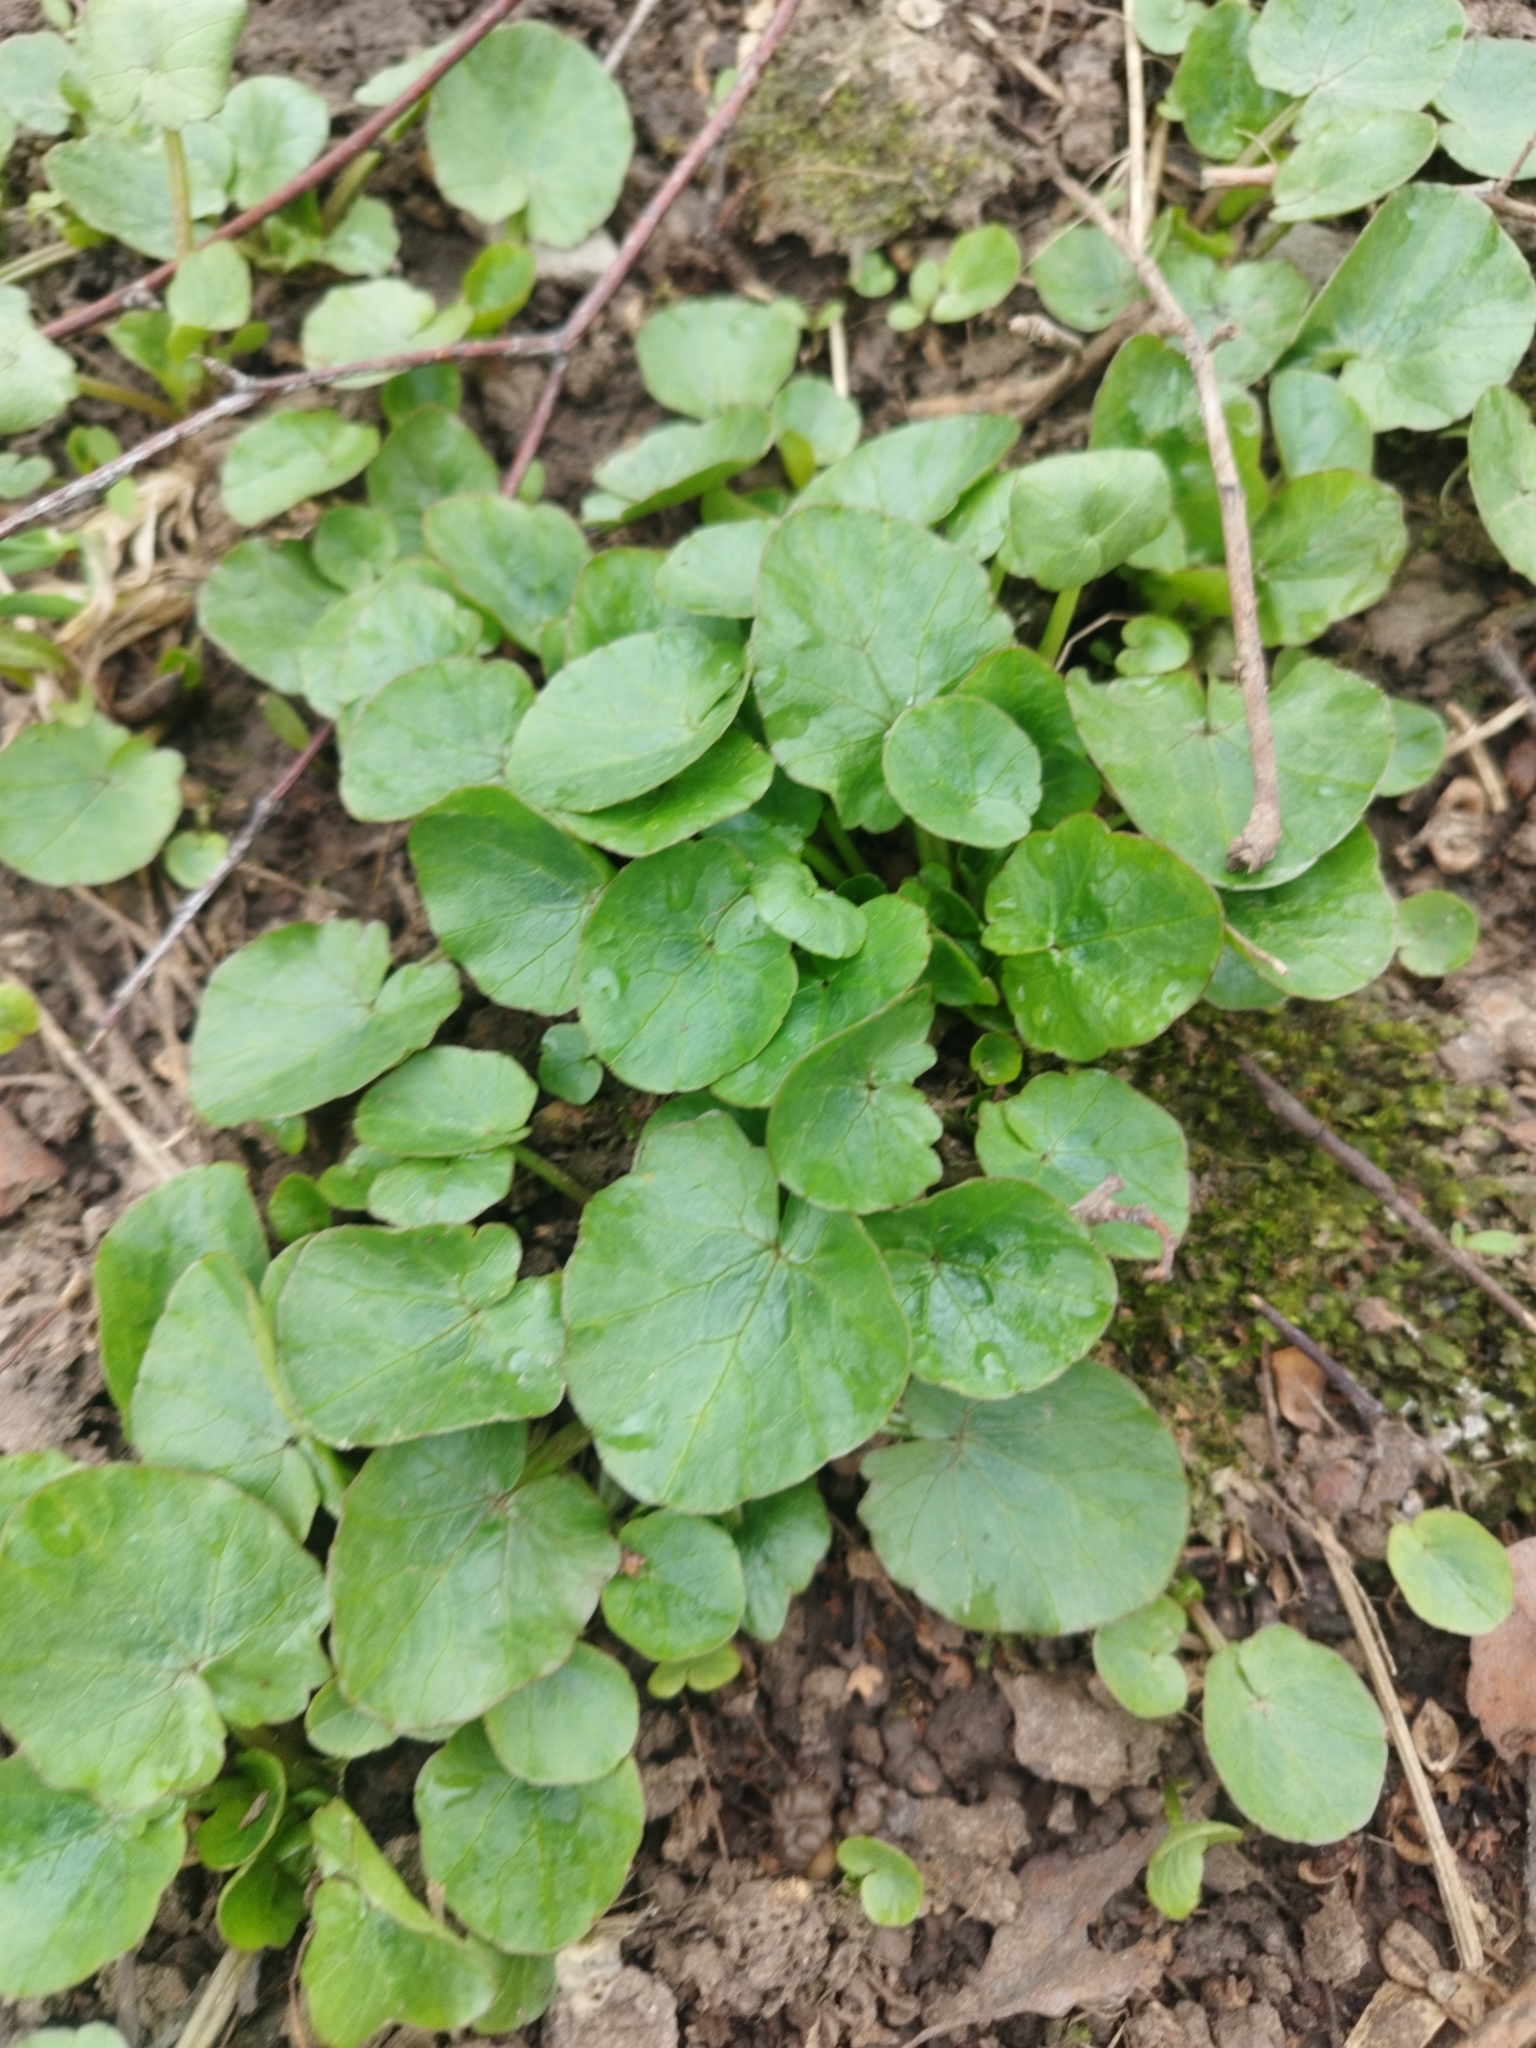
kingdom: Plantae
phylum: Tracheophyta
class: Magnoliopsida
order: Ranunculales
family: Ranunculaceae
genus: Ficaria
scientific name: Ficaria verna
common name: Lesser celandine
